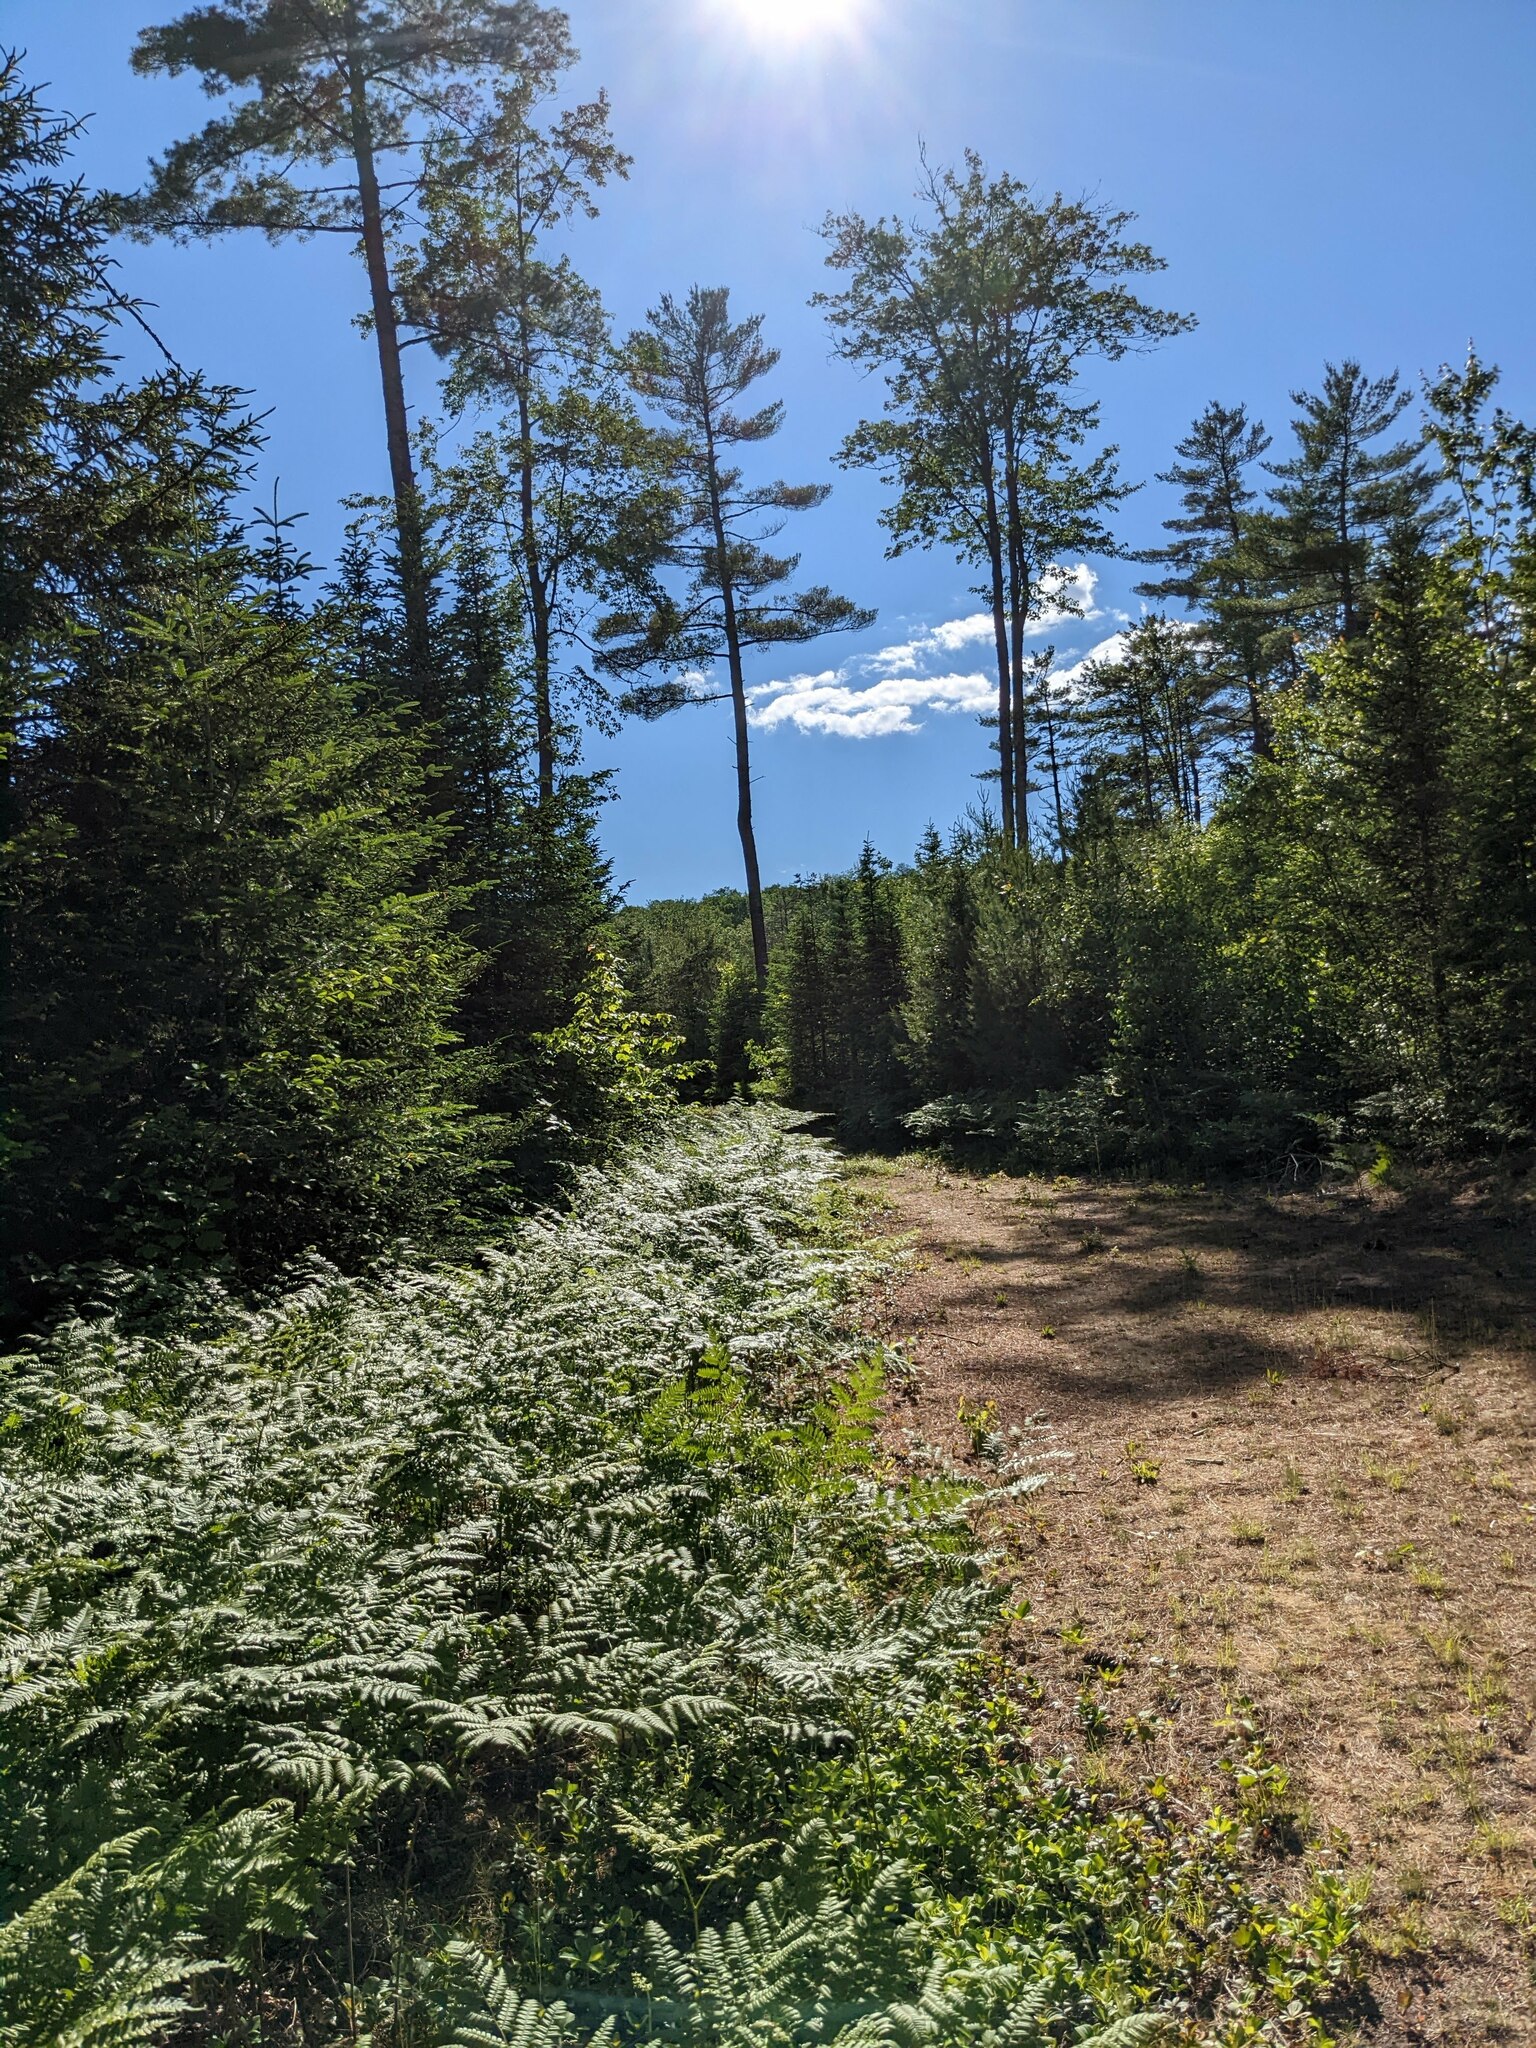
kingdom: Plantae
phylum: Tracheophyta
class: Polypodiopsida
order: Polypodiales
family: Dennstaedtiaceae
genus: Pteridium
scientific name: Pteridium aquilinum
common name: Bracken
